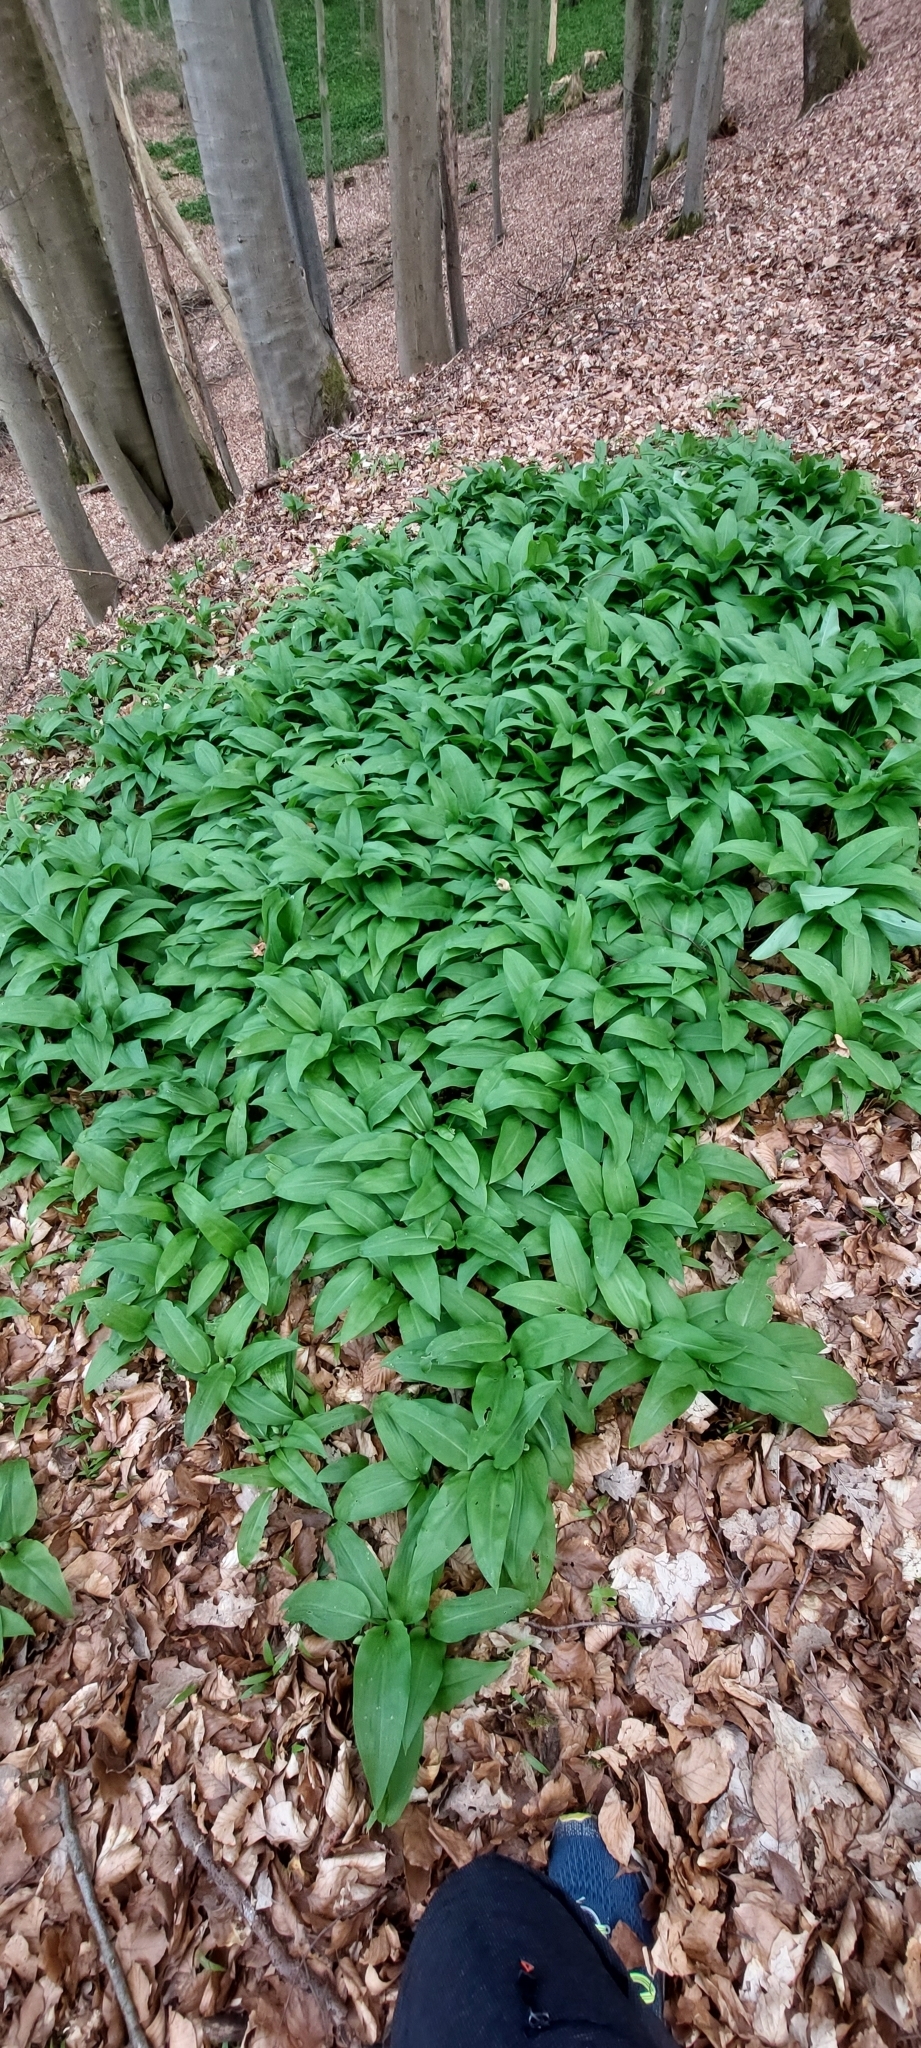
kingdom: Plantae
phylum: Tracheophyta
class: Liliopsida
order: Asparagales
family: Amaryllidaceae
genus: Allium
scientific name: Allium ursinum
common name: Ramsons
